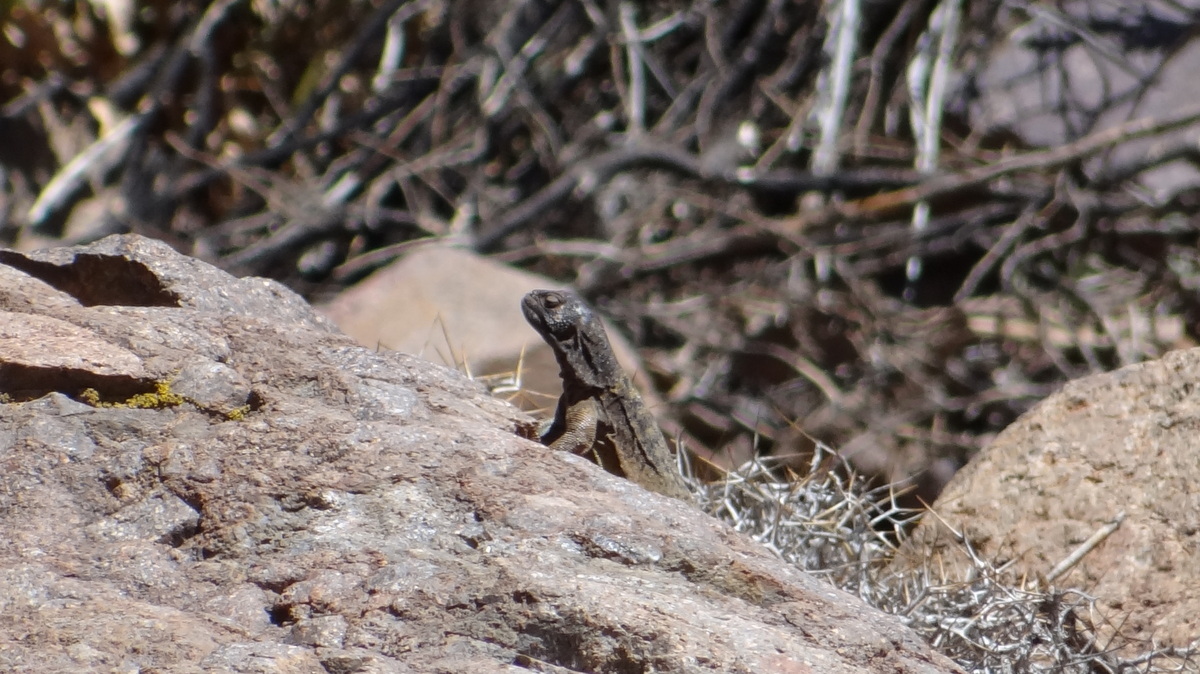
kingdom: Animalia
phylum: Chordata
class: Squamata
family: Liolaemidae
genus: Phymaturus
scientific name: Phymaturus verdugo
